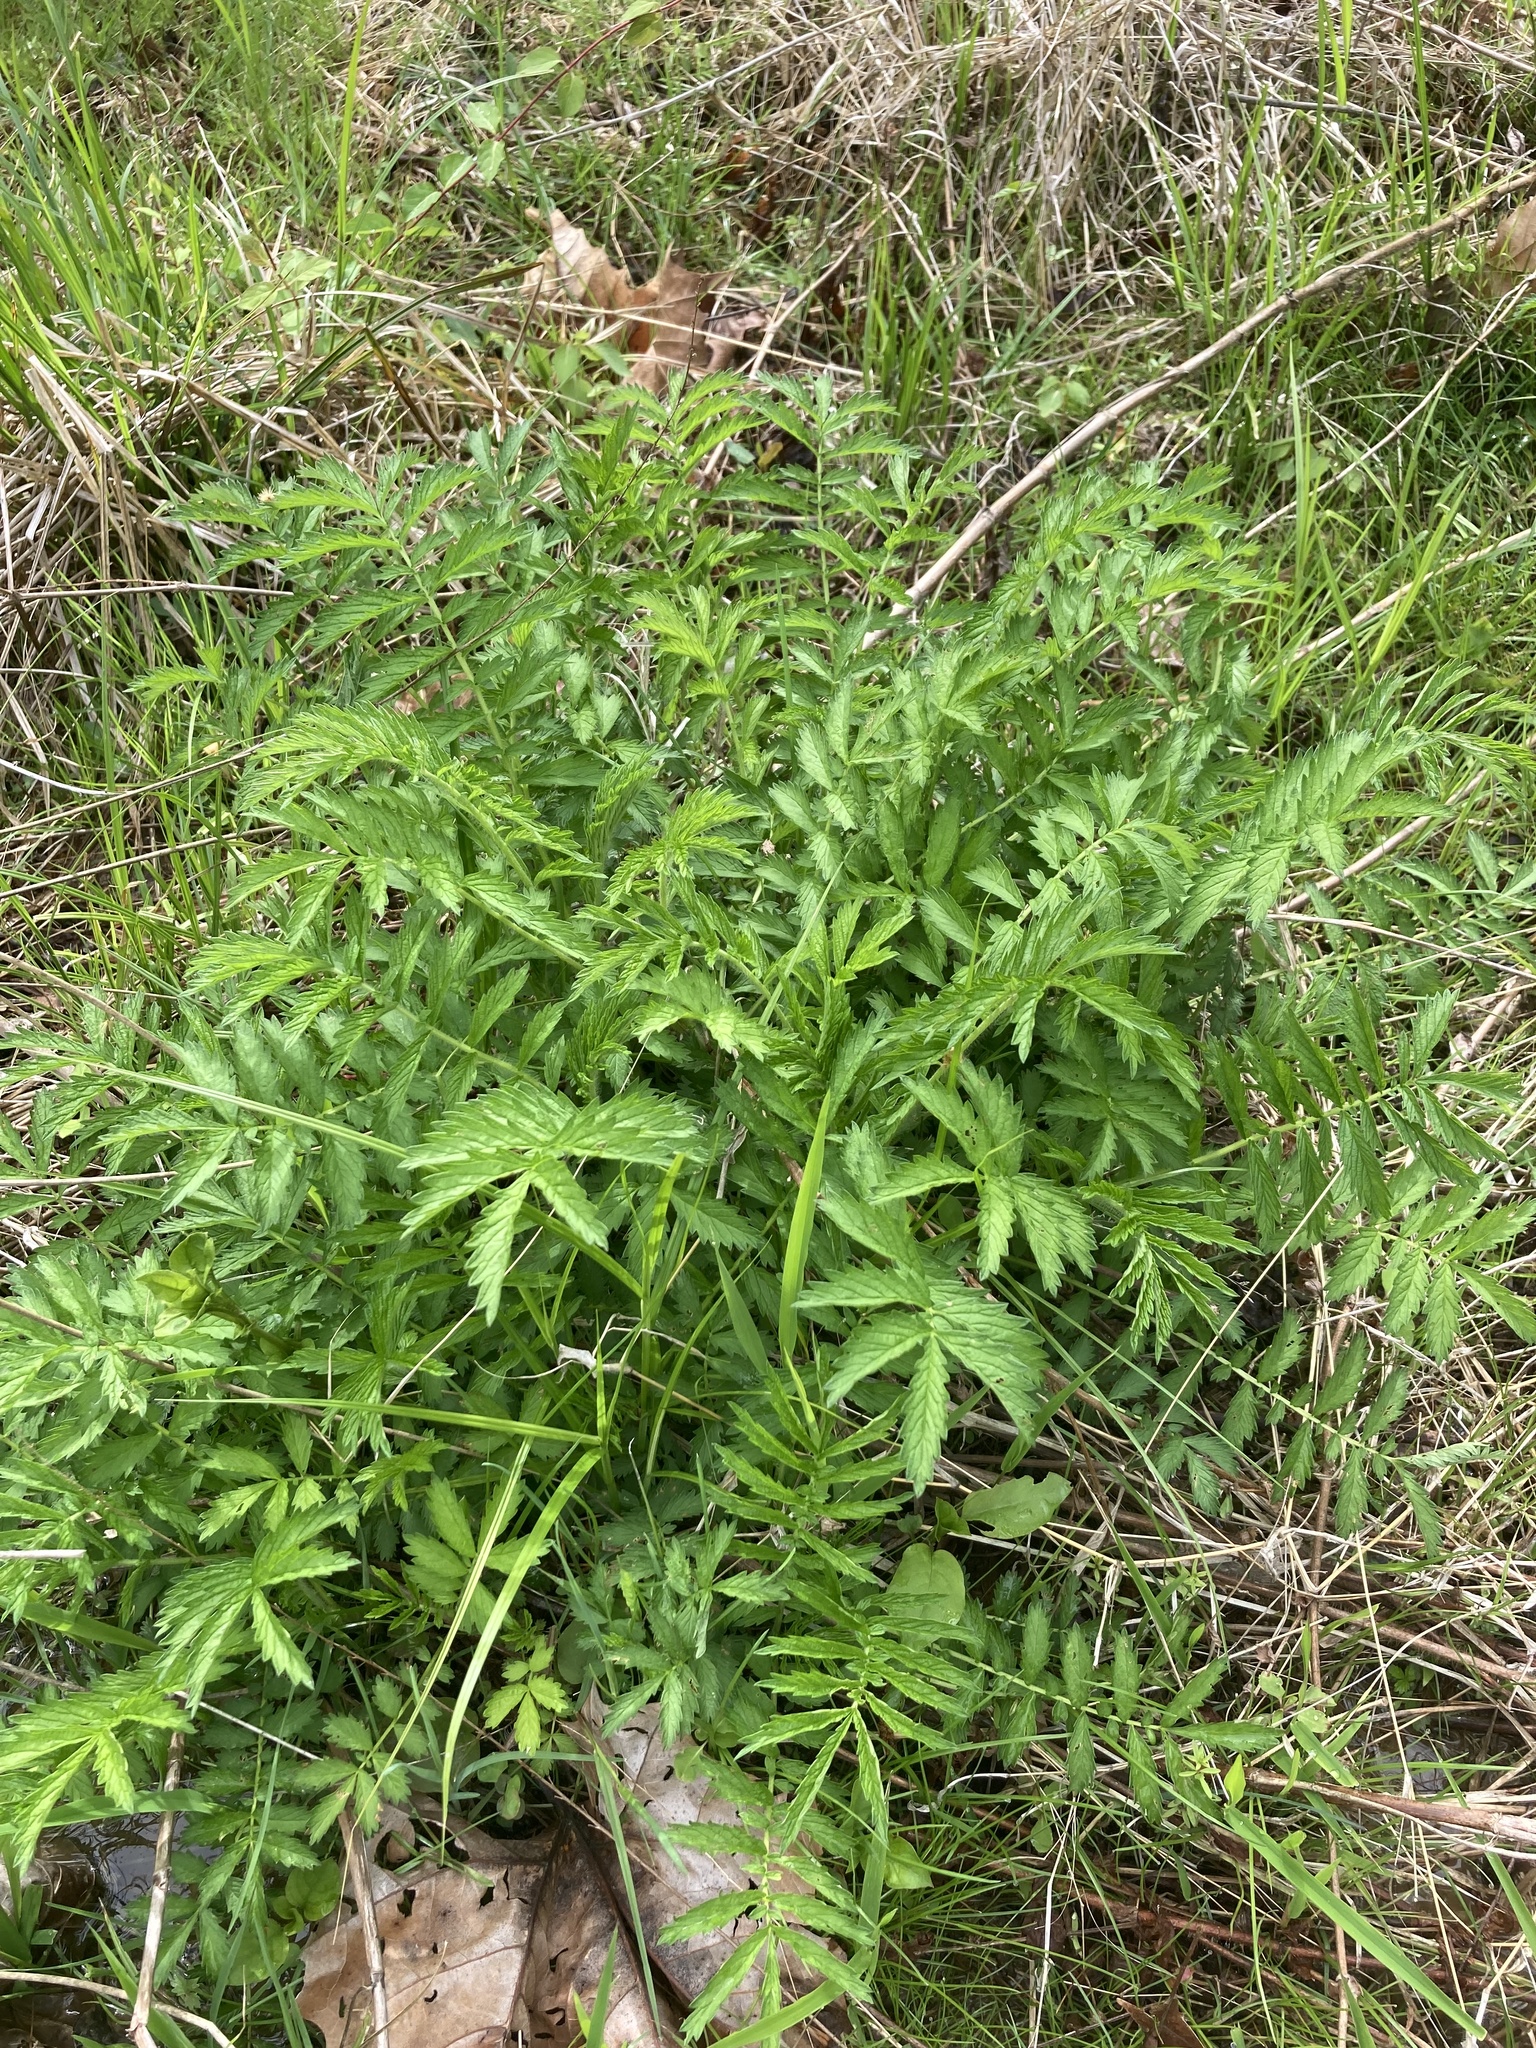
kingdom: Plantae
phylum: Tracheophyta
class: Magnoliopsida
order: Rosales
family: Rosaceae
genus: Agrimonia
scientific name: Agrimonia parviflora
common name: Harvest-lice
